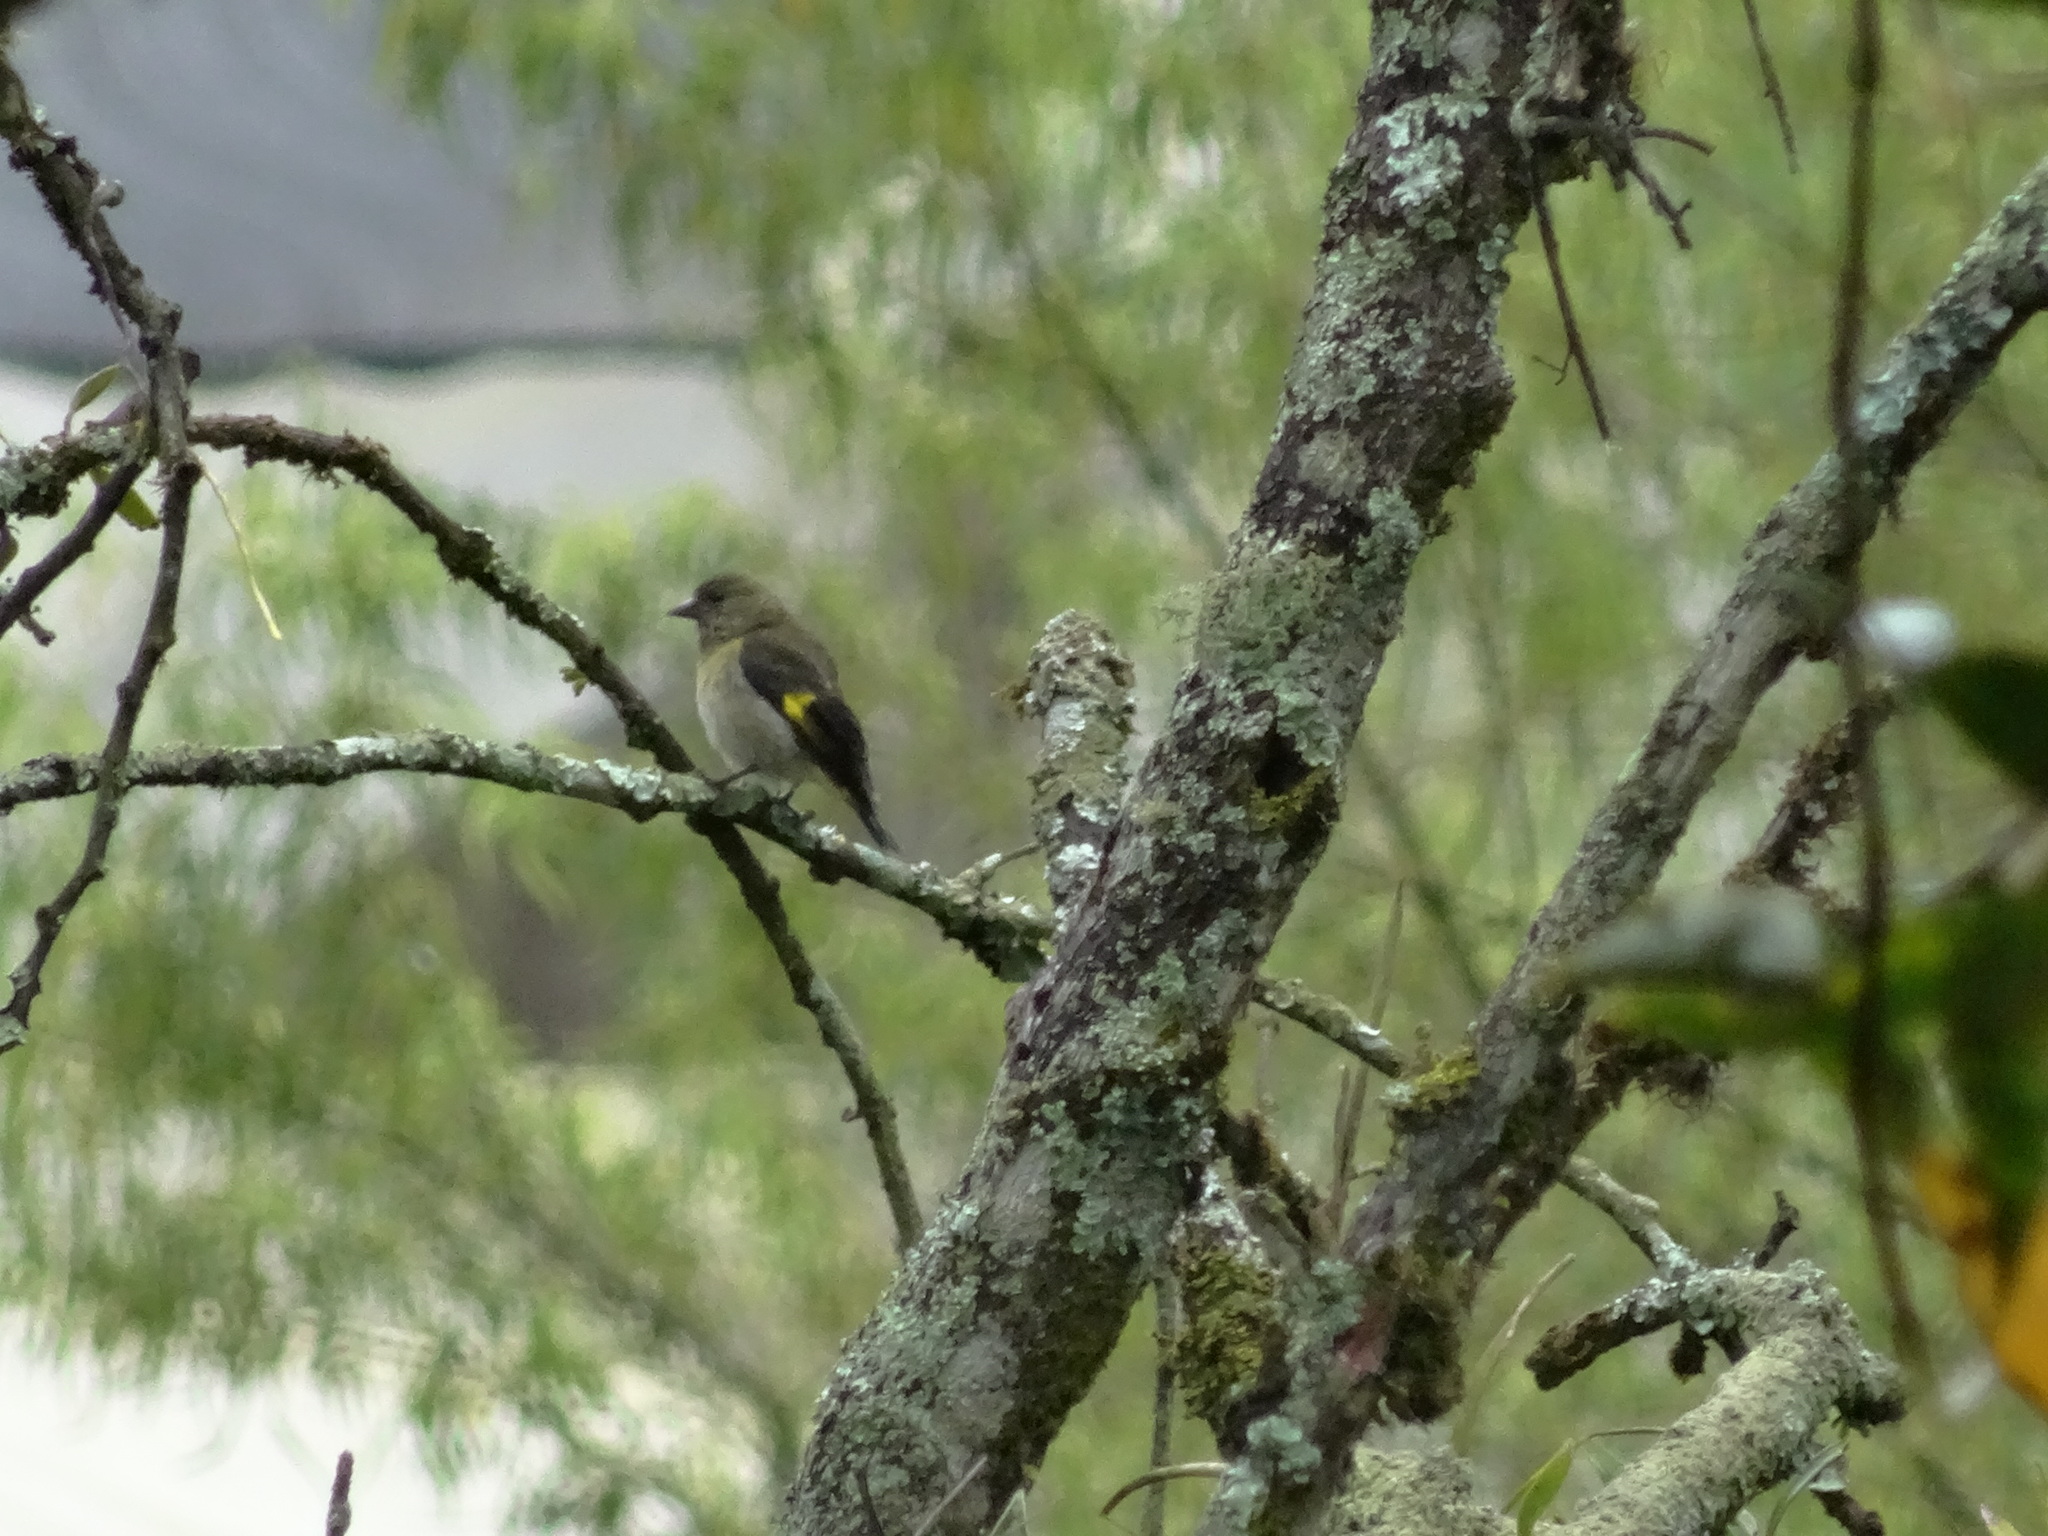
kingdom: Animalia
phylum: Chordata
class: Aves
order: Passeriformes
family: Fringillidae
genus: Spinus
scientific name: Spinus xanthogastrus
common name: Yellow-bellied siskin
